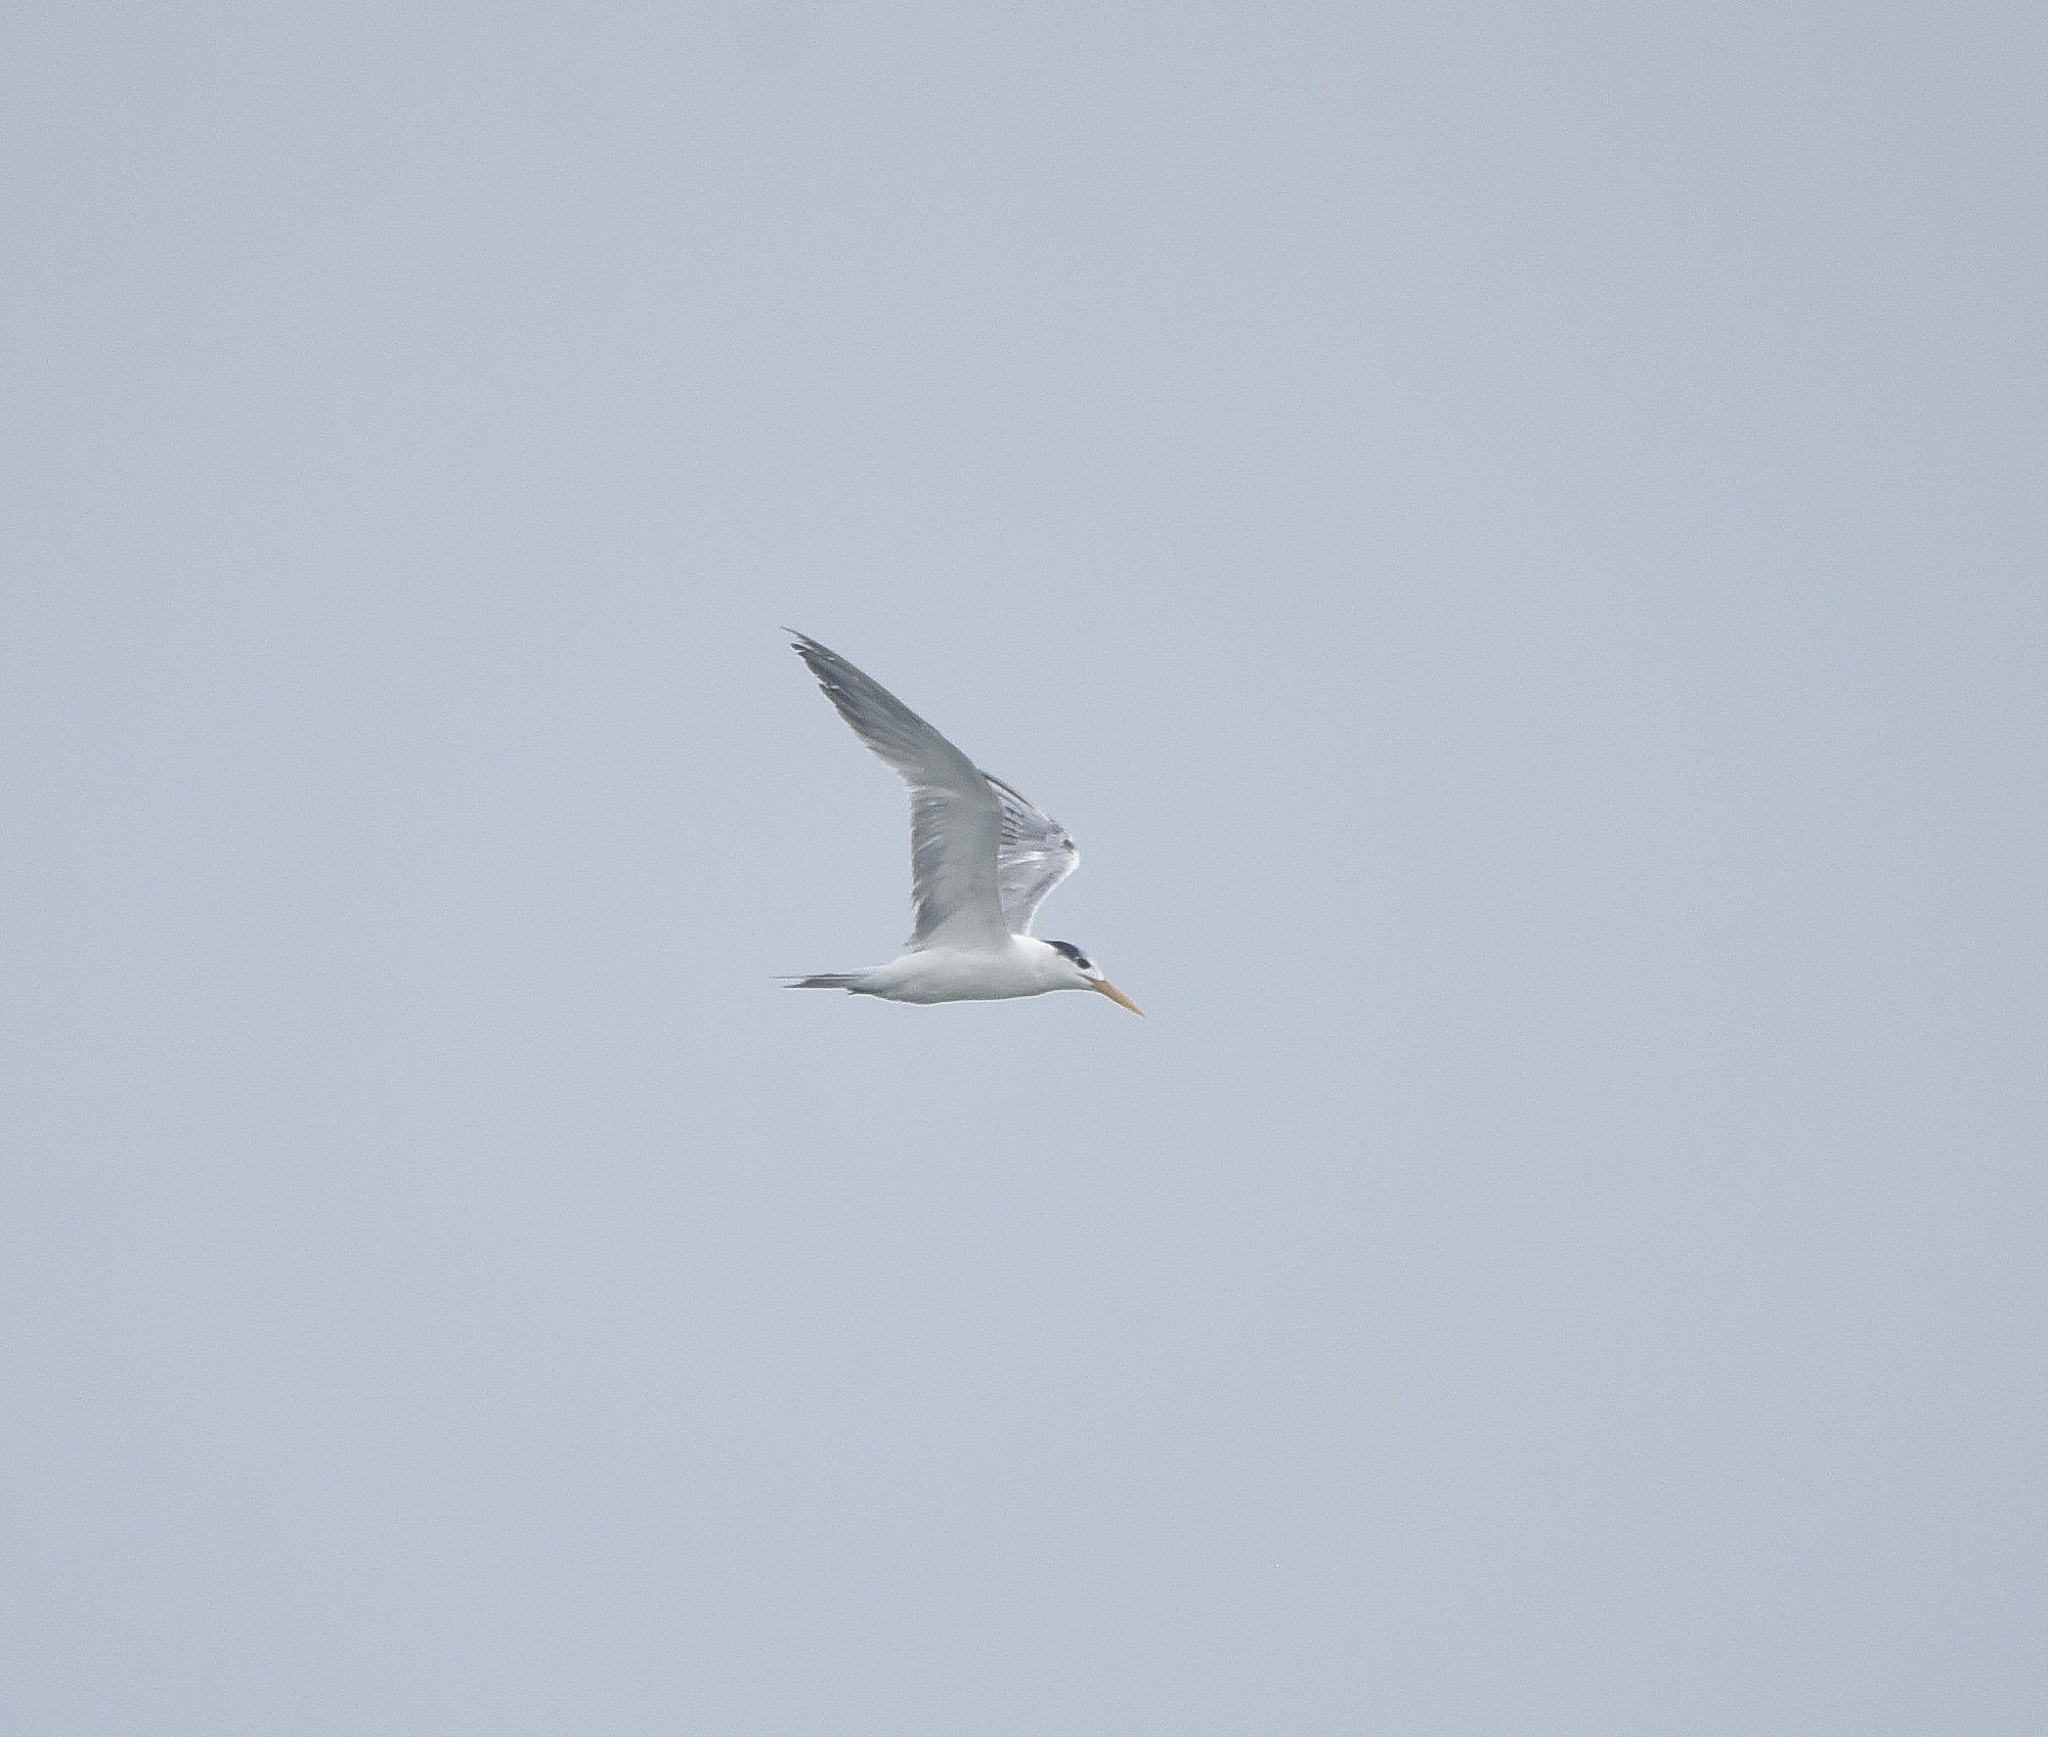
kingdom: Animalia
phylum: Chordata
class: Aves
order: Charadriiformes
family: Laridae
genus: Thalasseus
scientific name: Thalasseus bergii
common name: Greater crested tern
